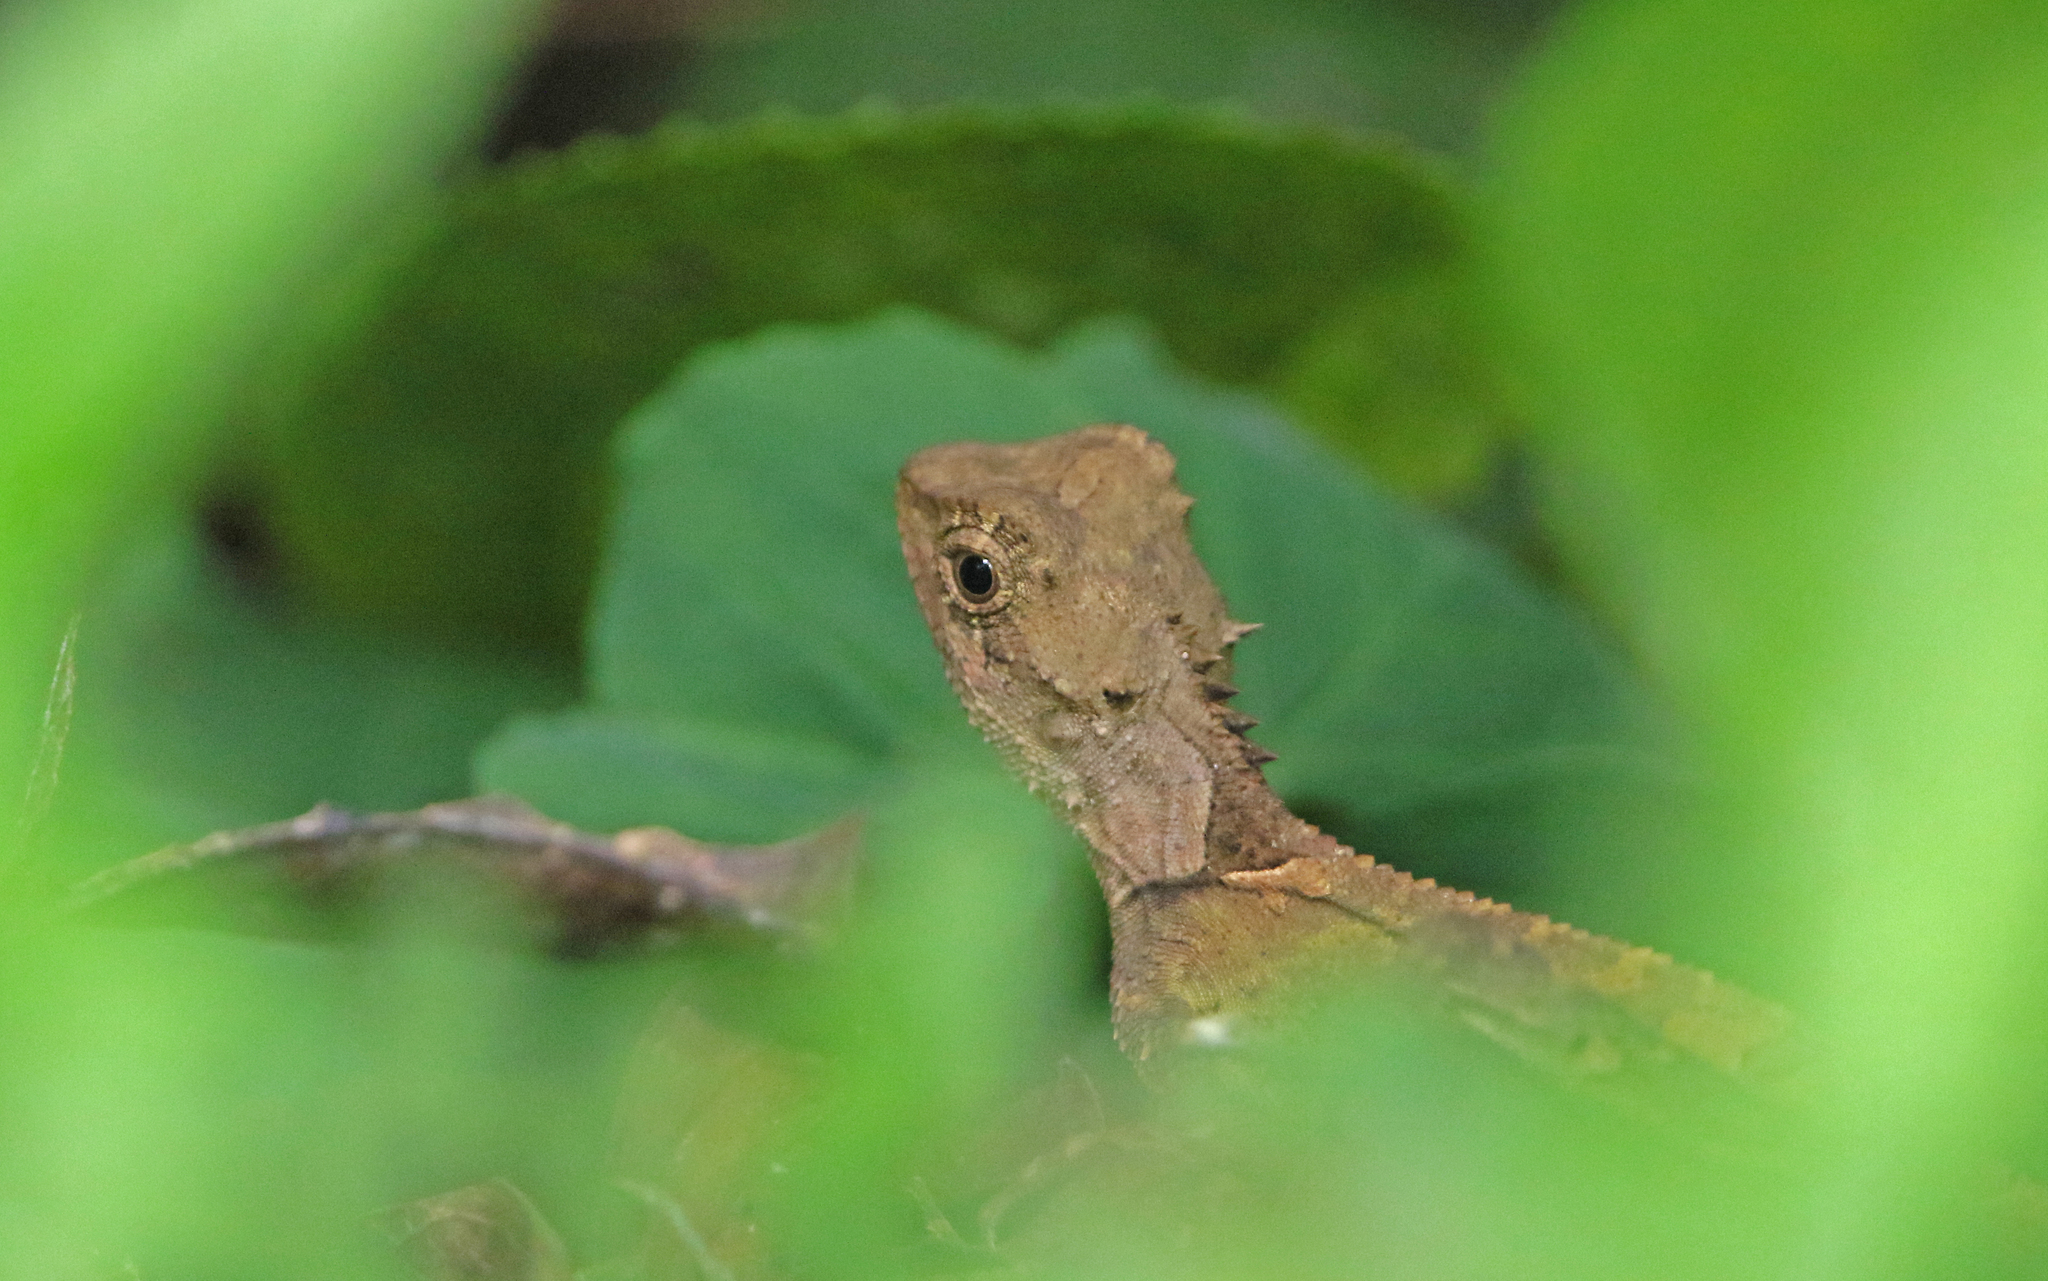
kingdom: Animalia
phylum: Chordata
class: Squamata
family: Agamidae
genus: Acanthosaura
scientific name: Acanthosaura lepidogaster
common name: Brown pricklenape
